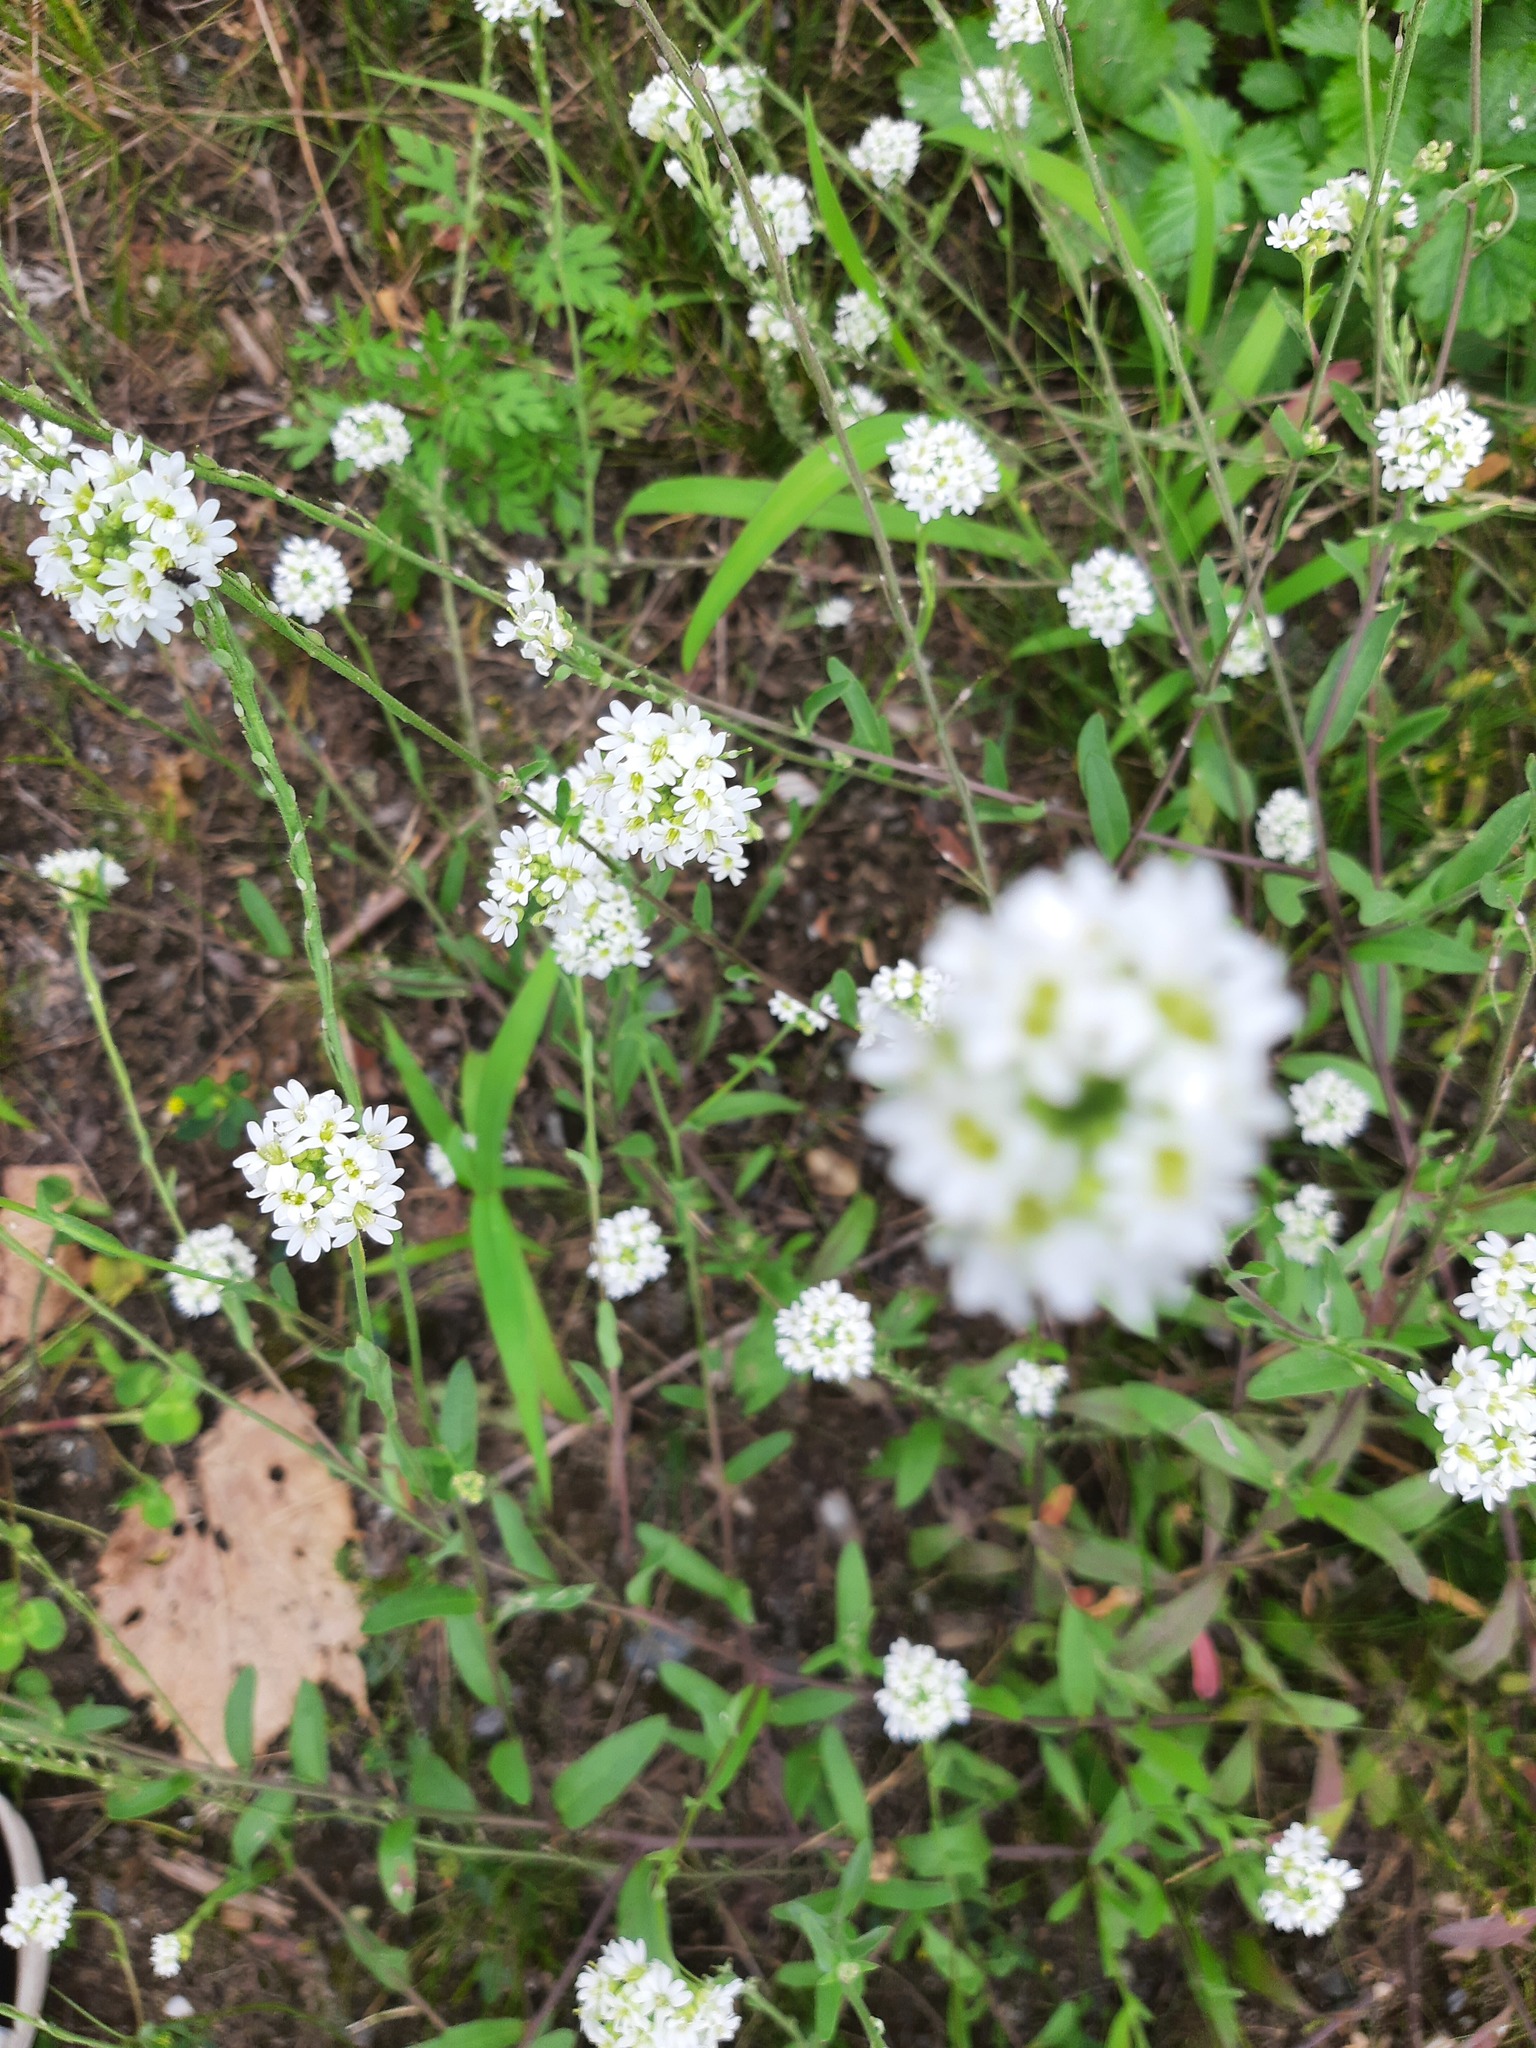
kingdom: Plantae
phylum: Tracheophyta
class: Magnoliopsida
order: Brassicales
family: Brassicaceae
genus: Berteroa
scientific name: Berteroa incana
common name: Hoary alison
